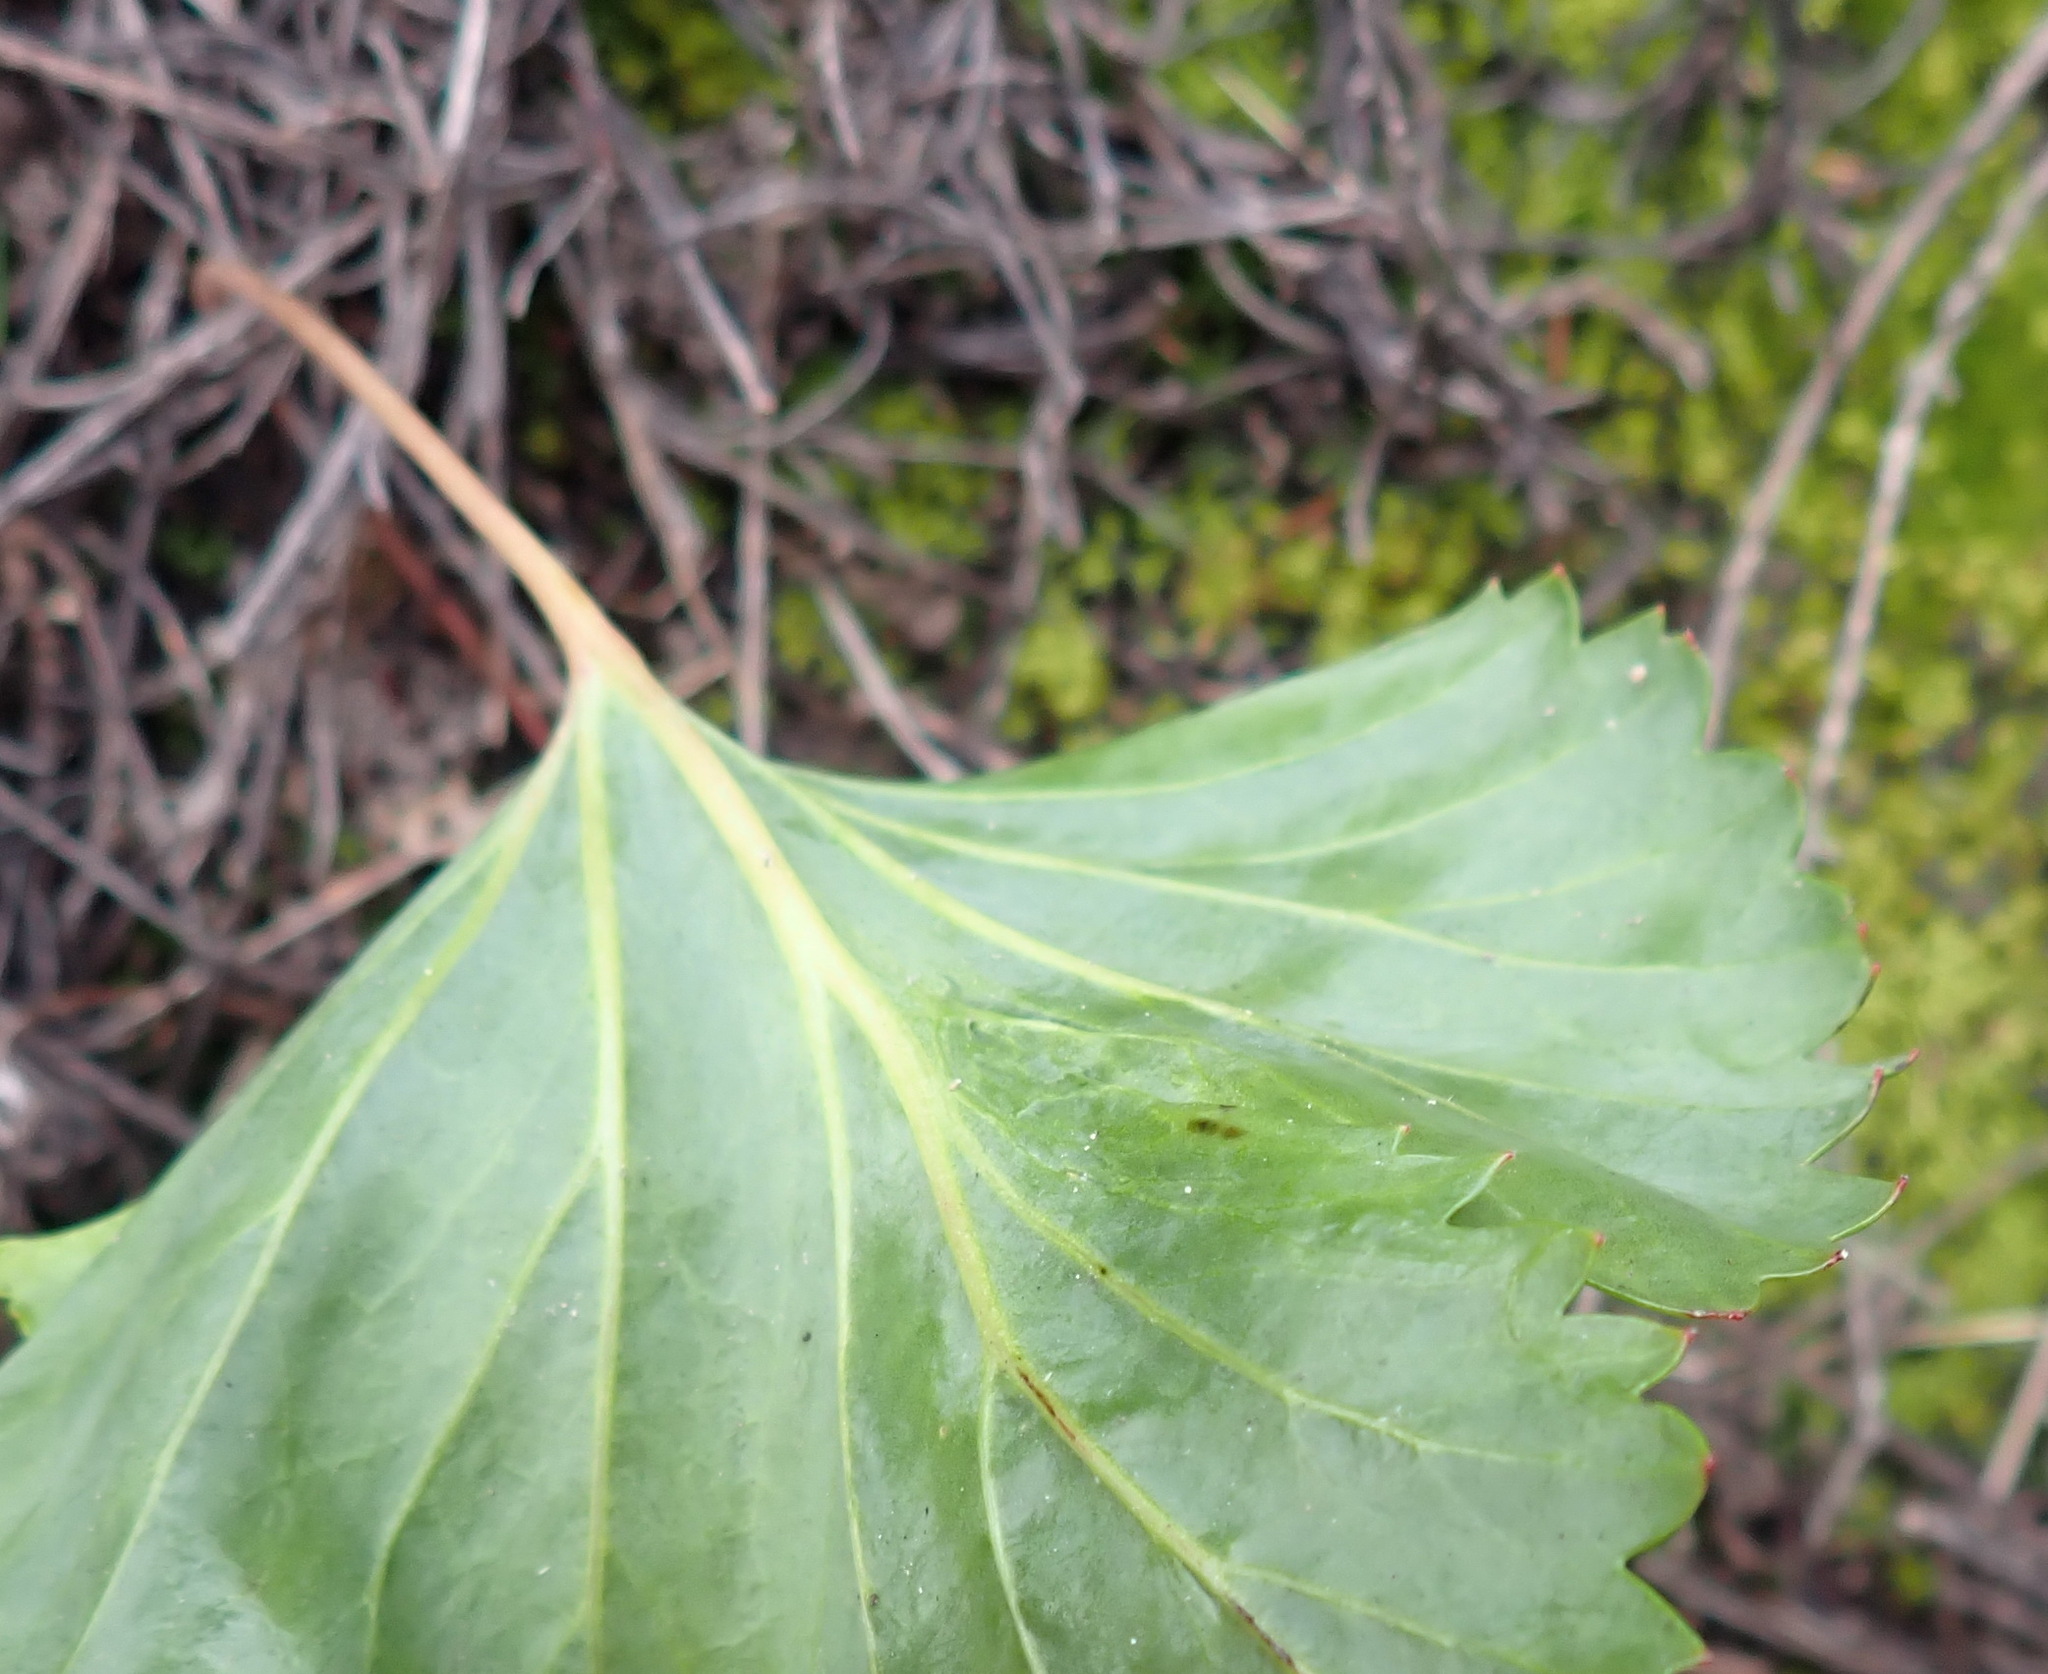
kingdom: Plantae
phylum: Tracheophyta
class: Magnoliopsida
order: Geraniales
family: Geraniaceae
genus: Pelargonium
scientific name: Pelargonium pulverulentum
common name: Powdered-leaf pelargonium
